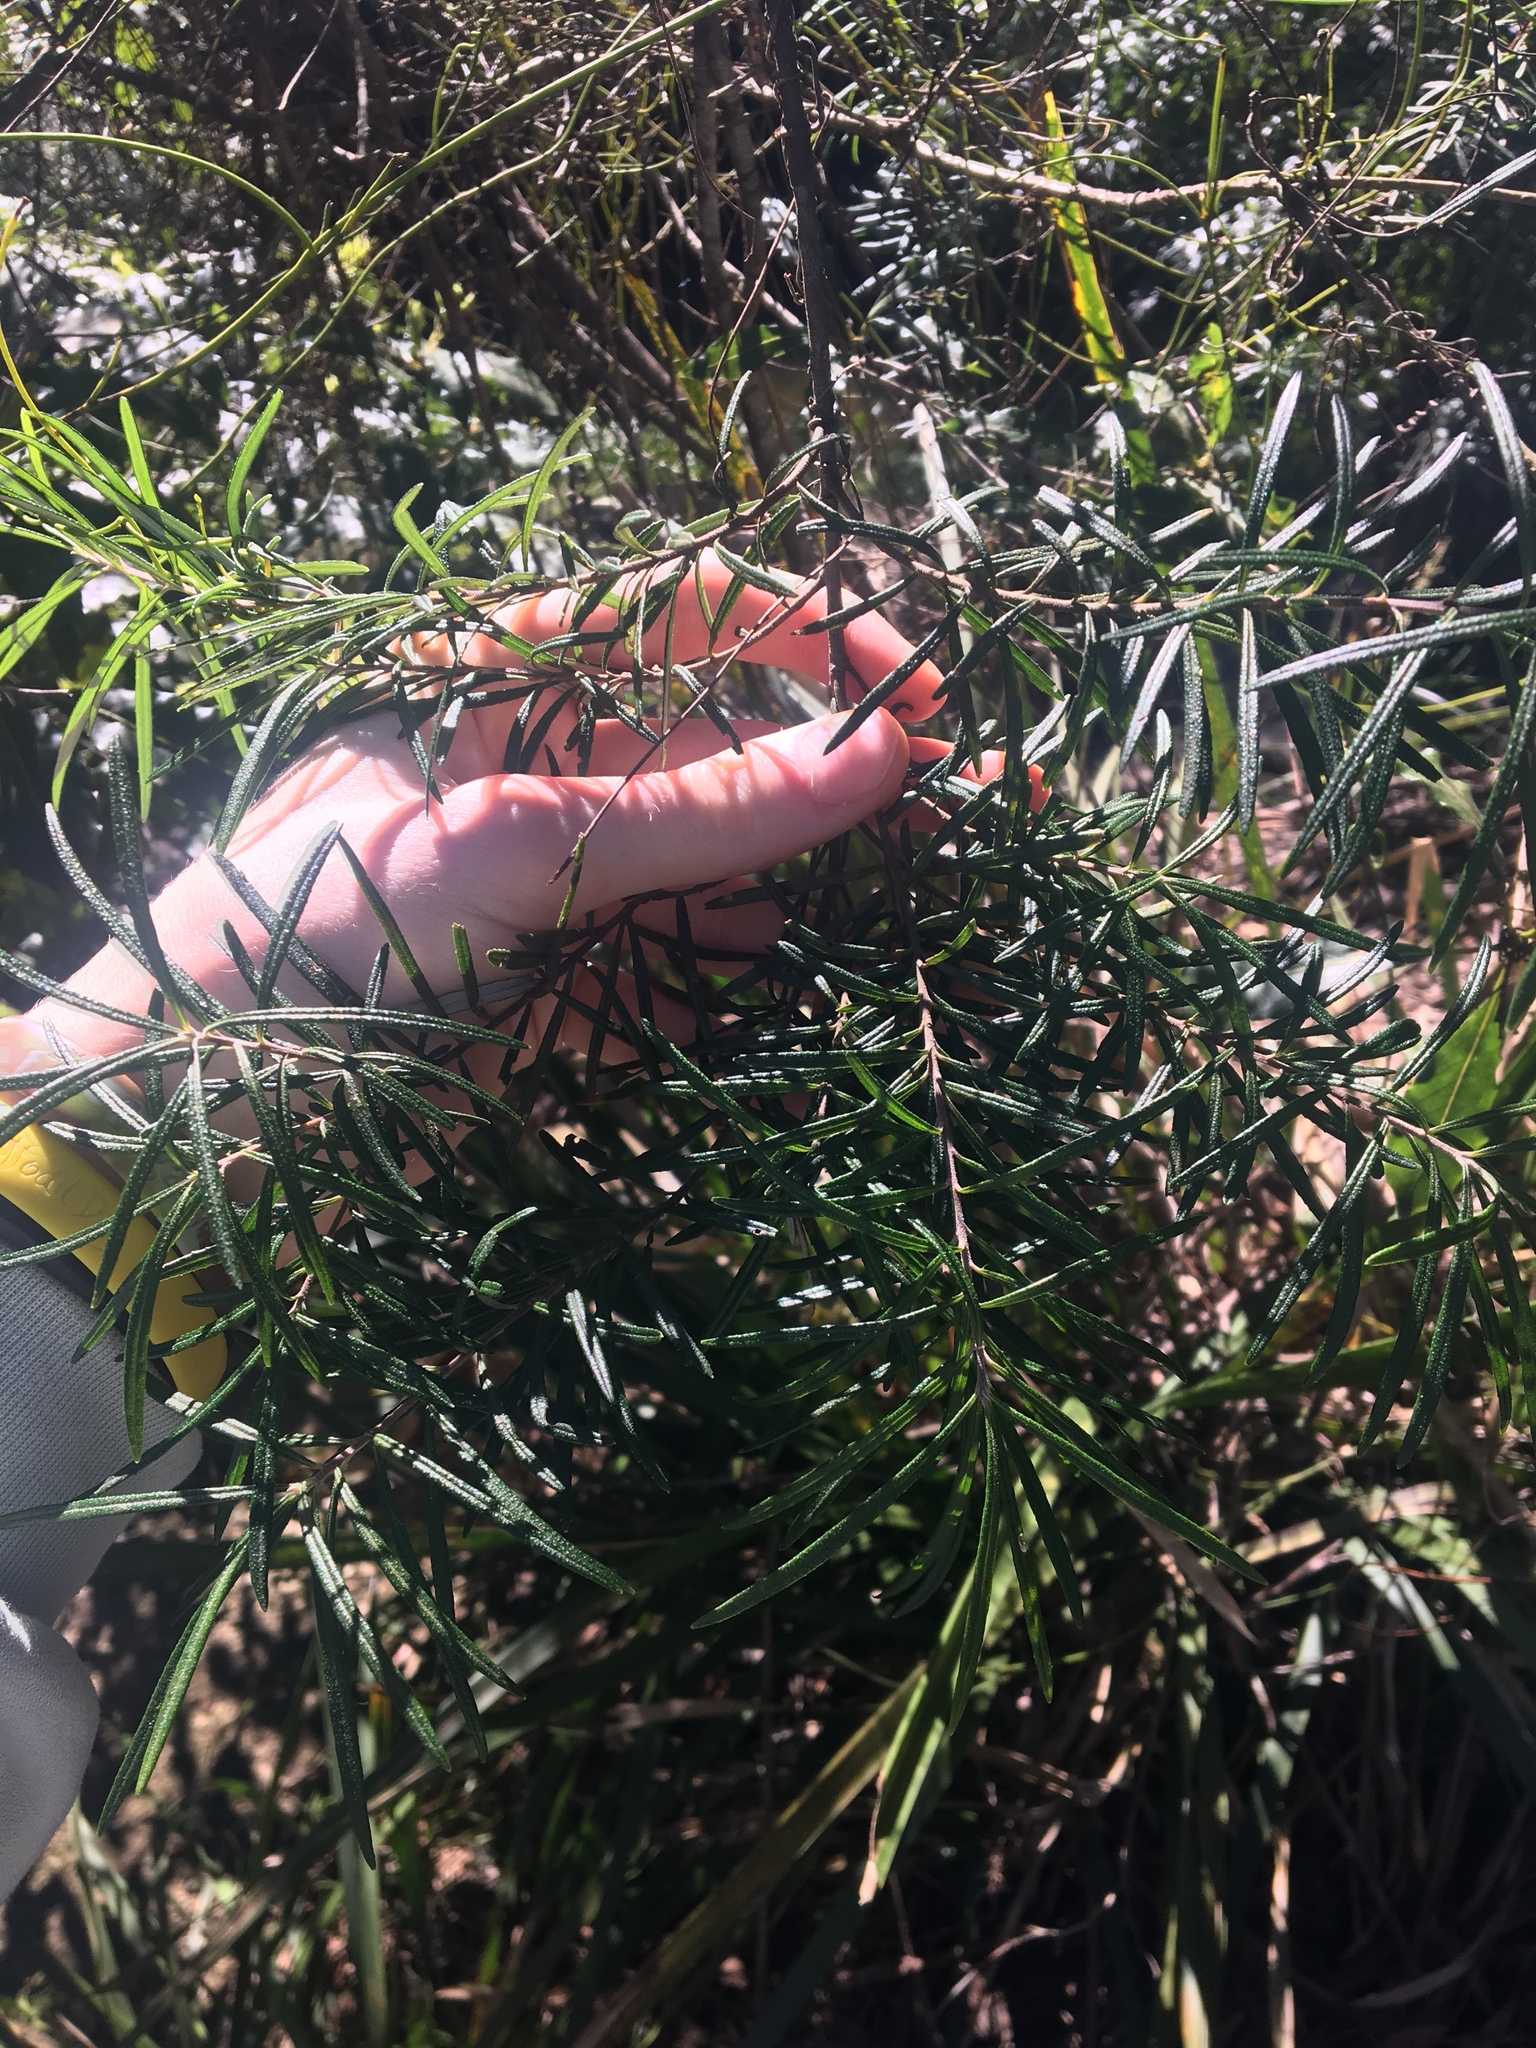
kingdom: Plantae
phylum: Tracheophyta
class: Magnoliopsida
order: Sapindales
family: Rutaceae
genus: Leionema
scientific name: Leionema dentatum
